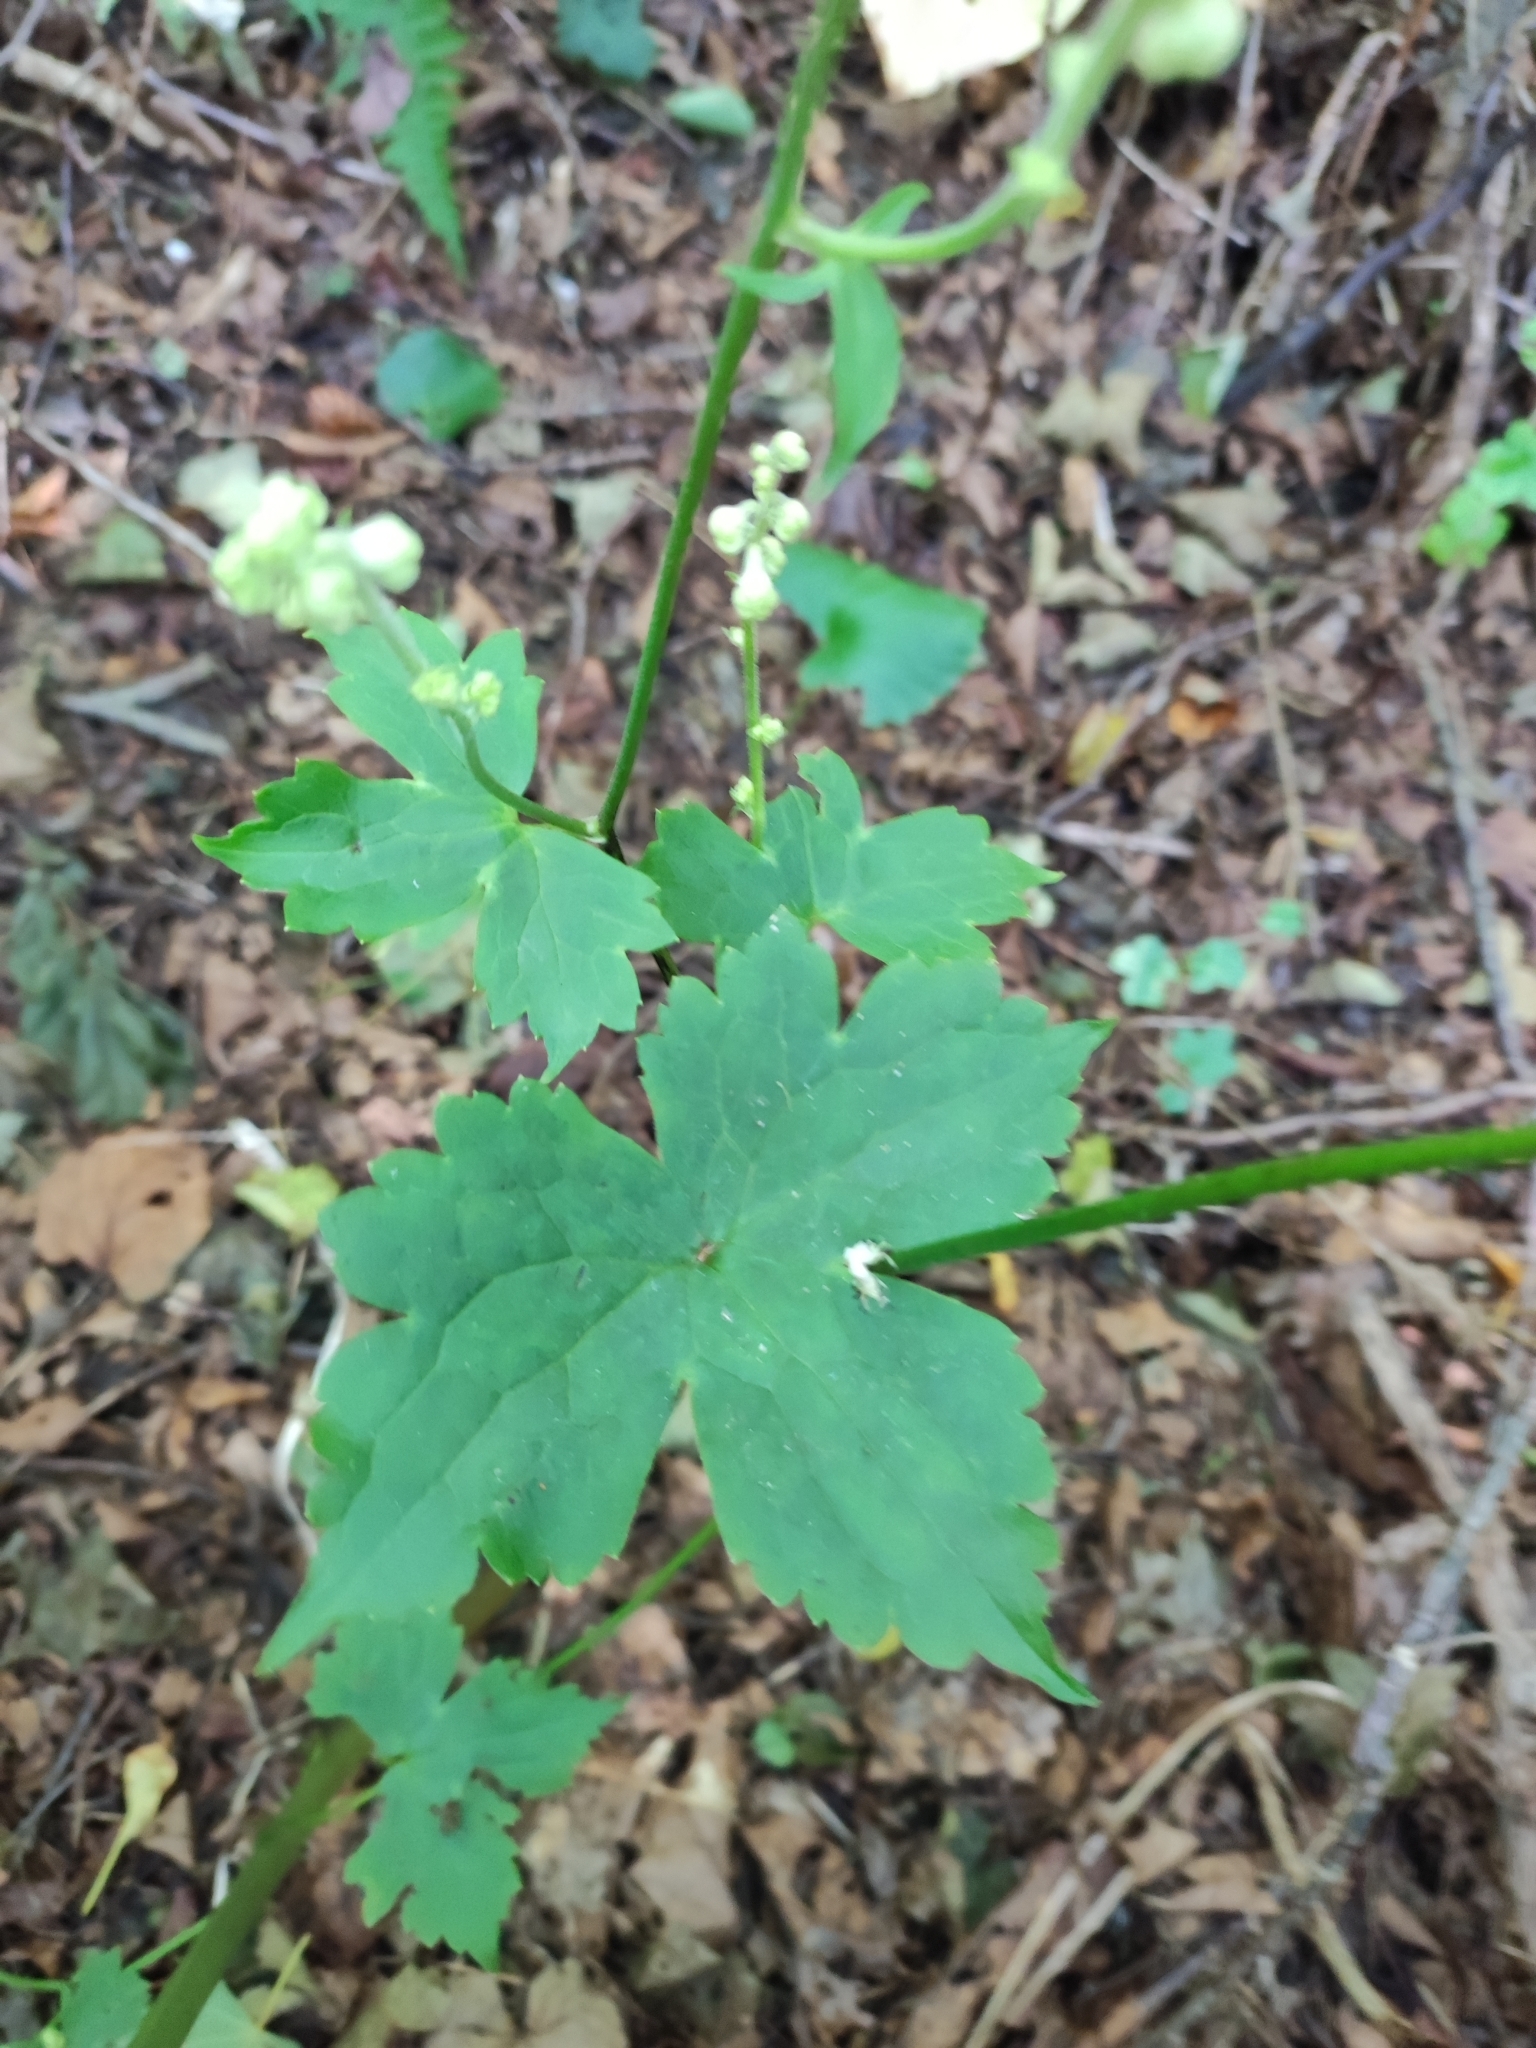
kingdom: Plantae
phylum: Tracheophyta
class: Magnoliopsida
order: Ranunculales
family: Ranunculaceae
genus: Aconitum
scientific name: Aconitum alboviolaceum
